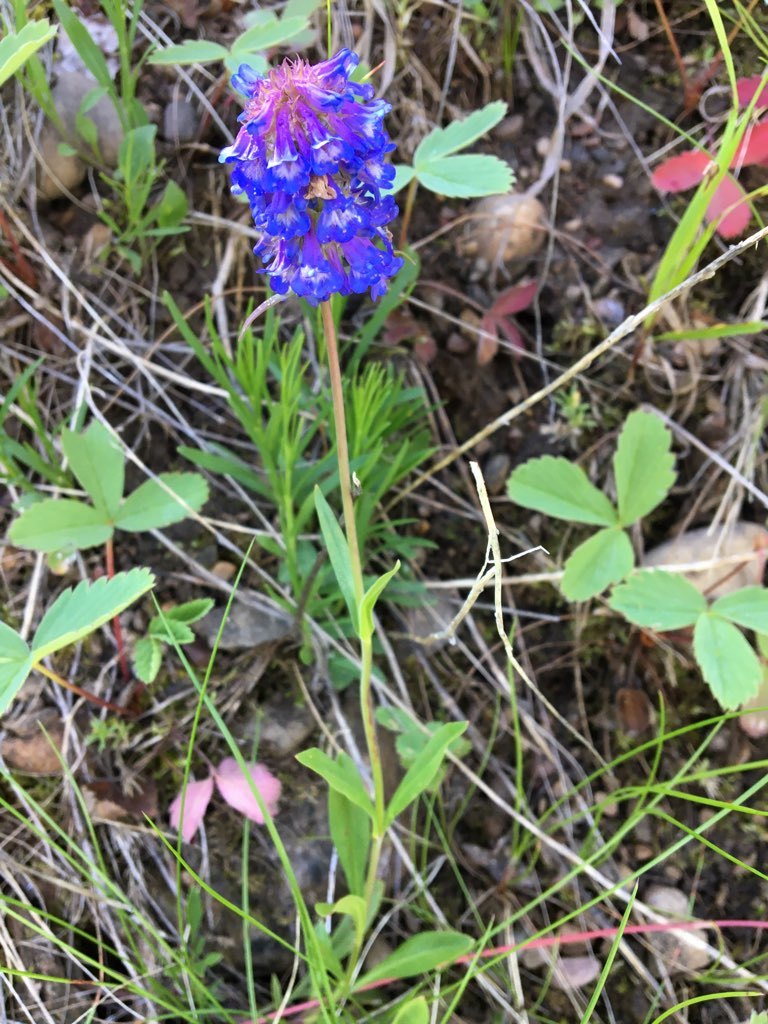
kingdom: Plantae
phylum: Tracheophyta
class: Magnoliopsida
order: Lamiales
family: Plantaginaceae
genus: Penstemon
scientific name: Penstemon procerus
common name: Small-flower penstemon
